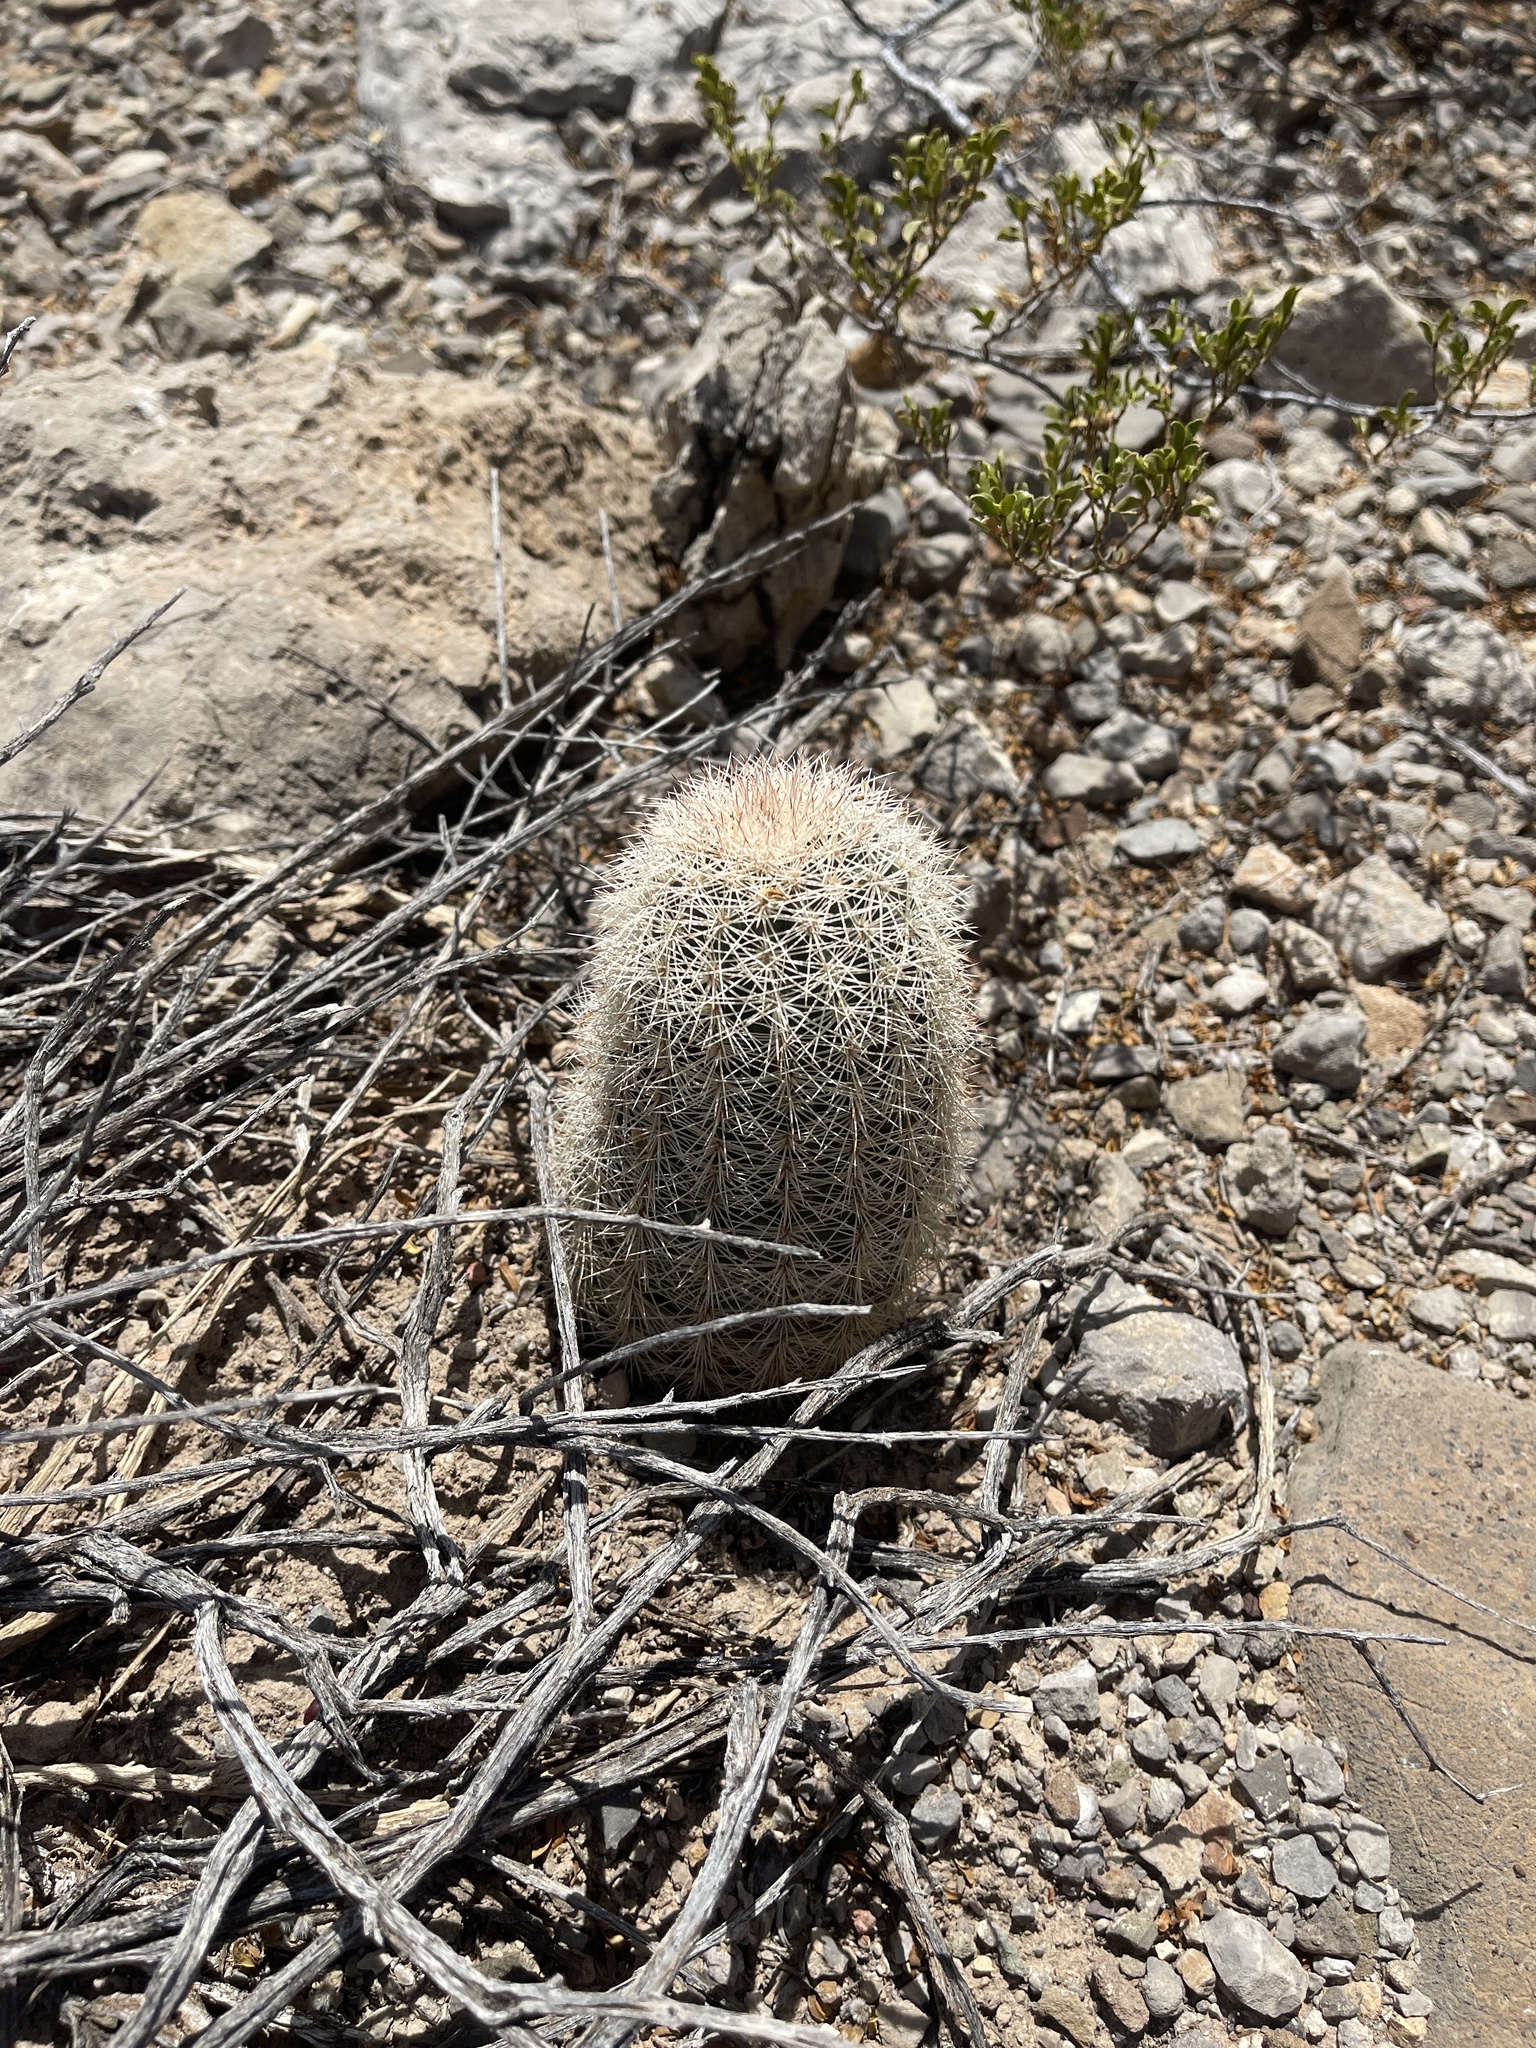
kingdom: Plantae
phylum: Tracheophyta
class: Magnoliopsida
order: Caryophyllales
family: Cactaceae
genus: Echinocereus
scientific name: Echinocereus dasyacanthus
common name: Spiny hedgehog cactus
